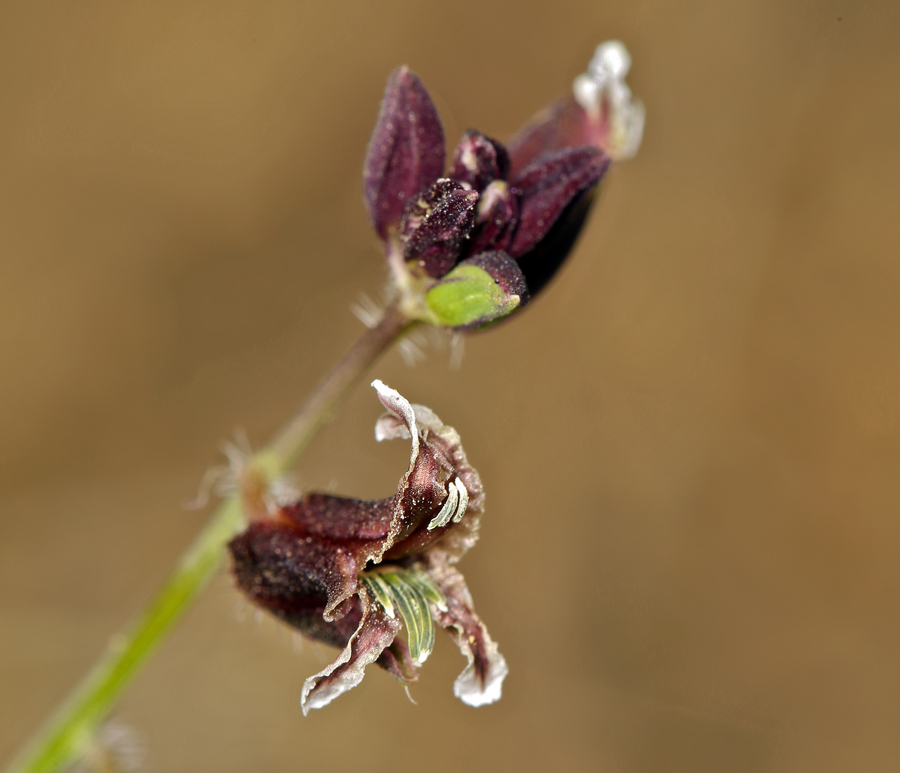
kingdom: Plantae
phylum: Tracheophyta
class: Magnoliopsida
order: Brassicales
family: Brassicaceae
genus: Streptanthus
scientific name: Streptanthus coulteri
